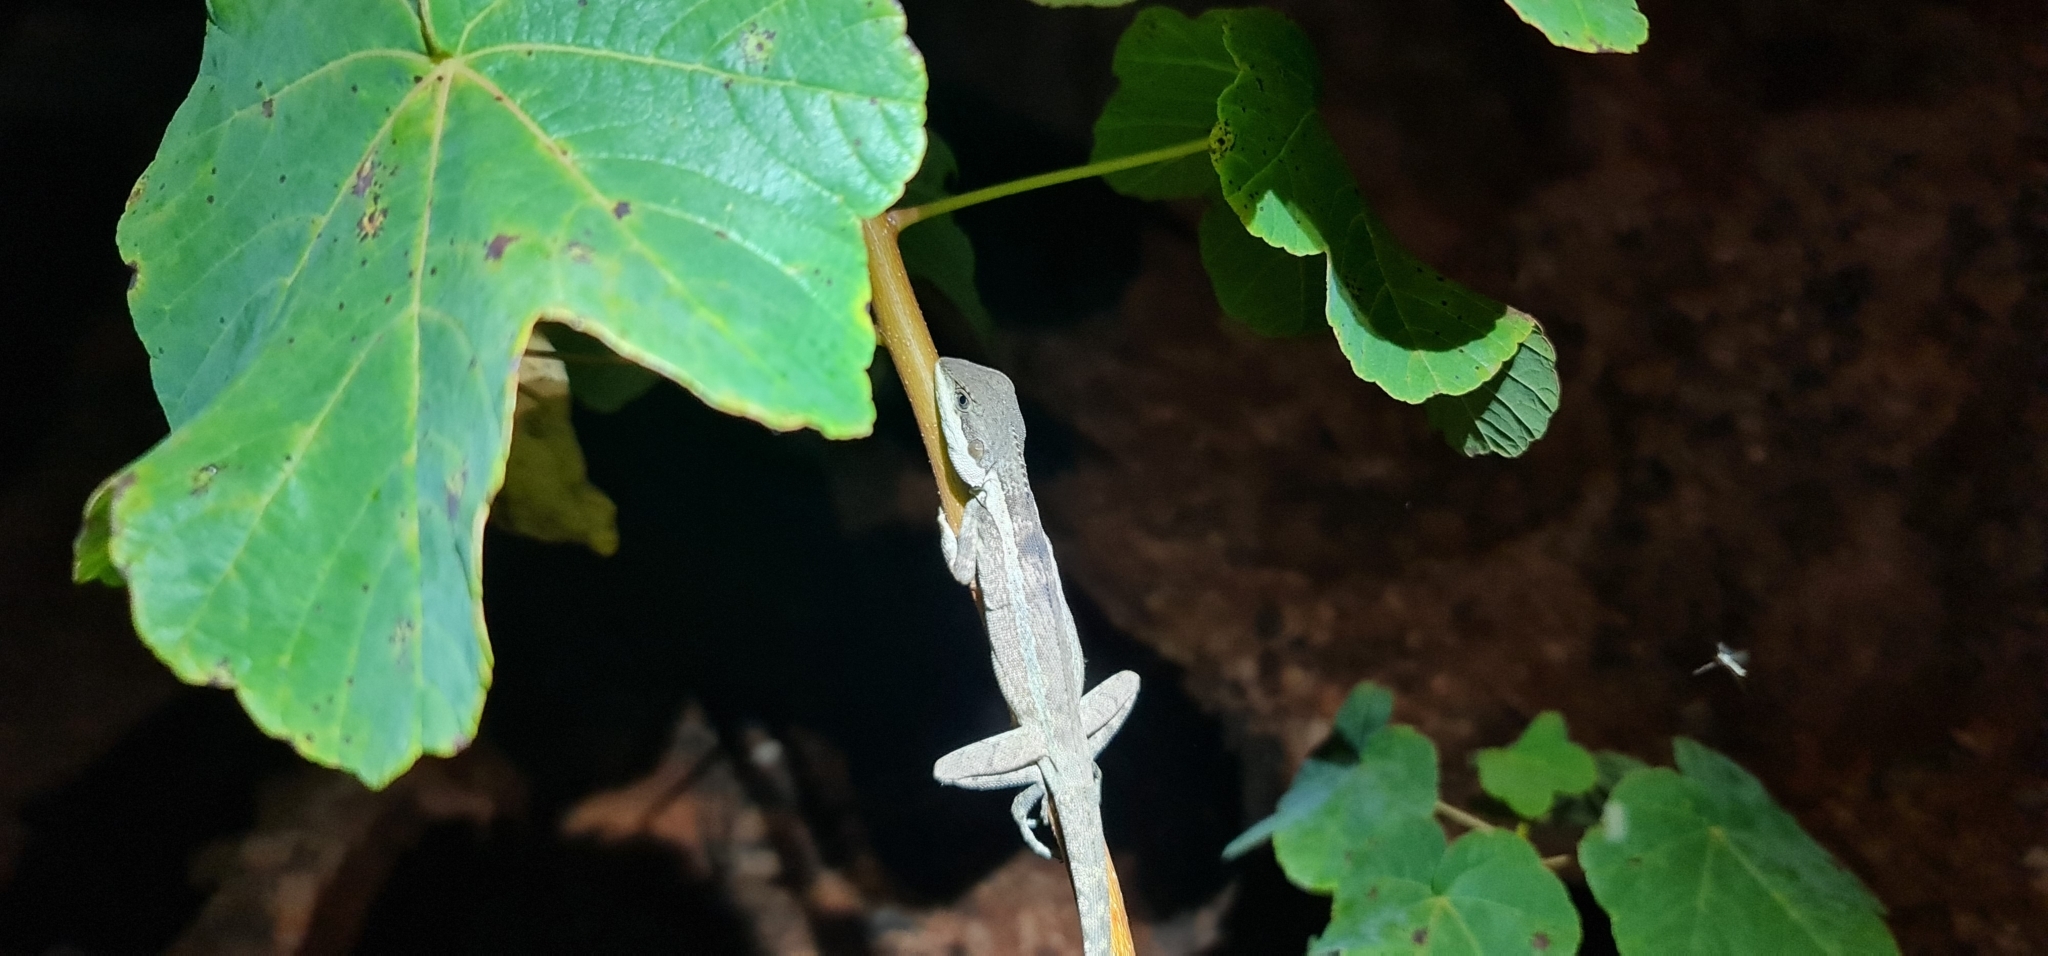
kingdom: Animalia
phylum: Chordata
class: Squamata
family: Agamidae
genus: Tropicagama
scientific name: Tropicagama temporalis
